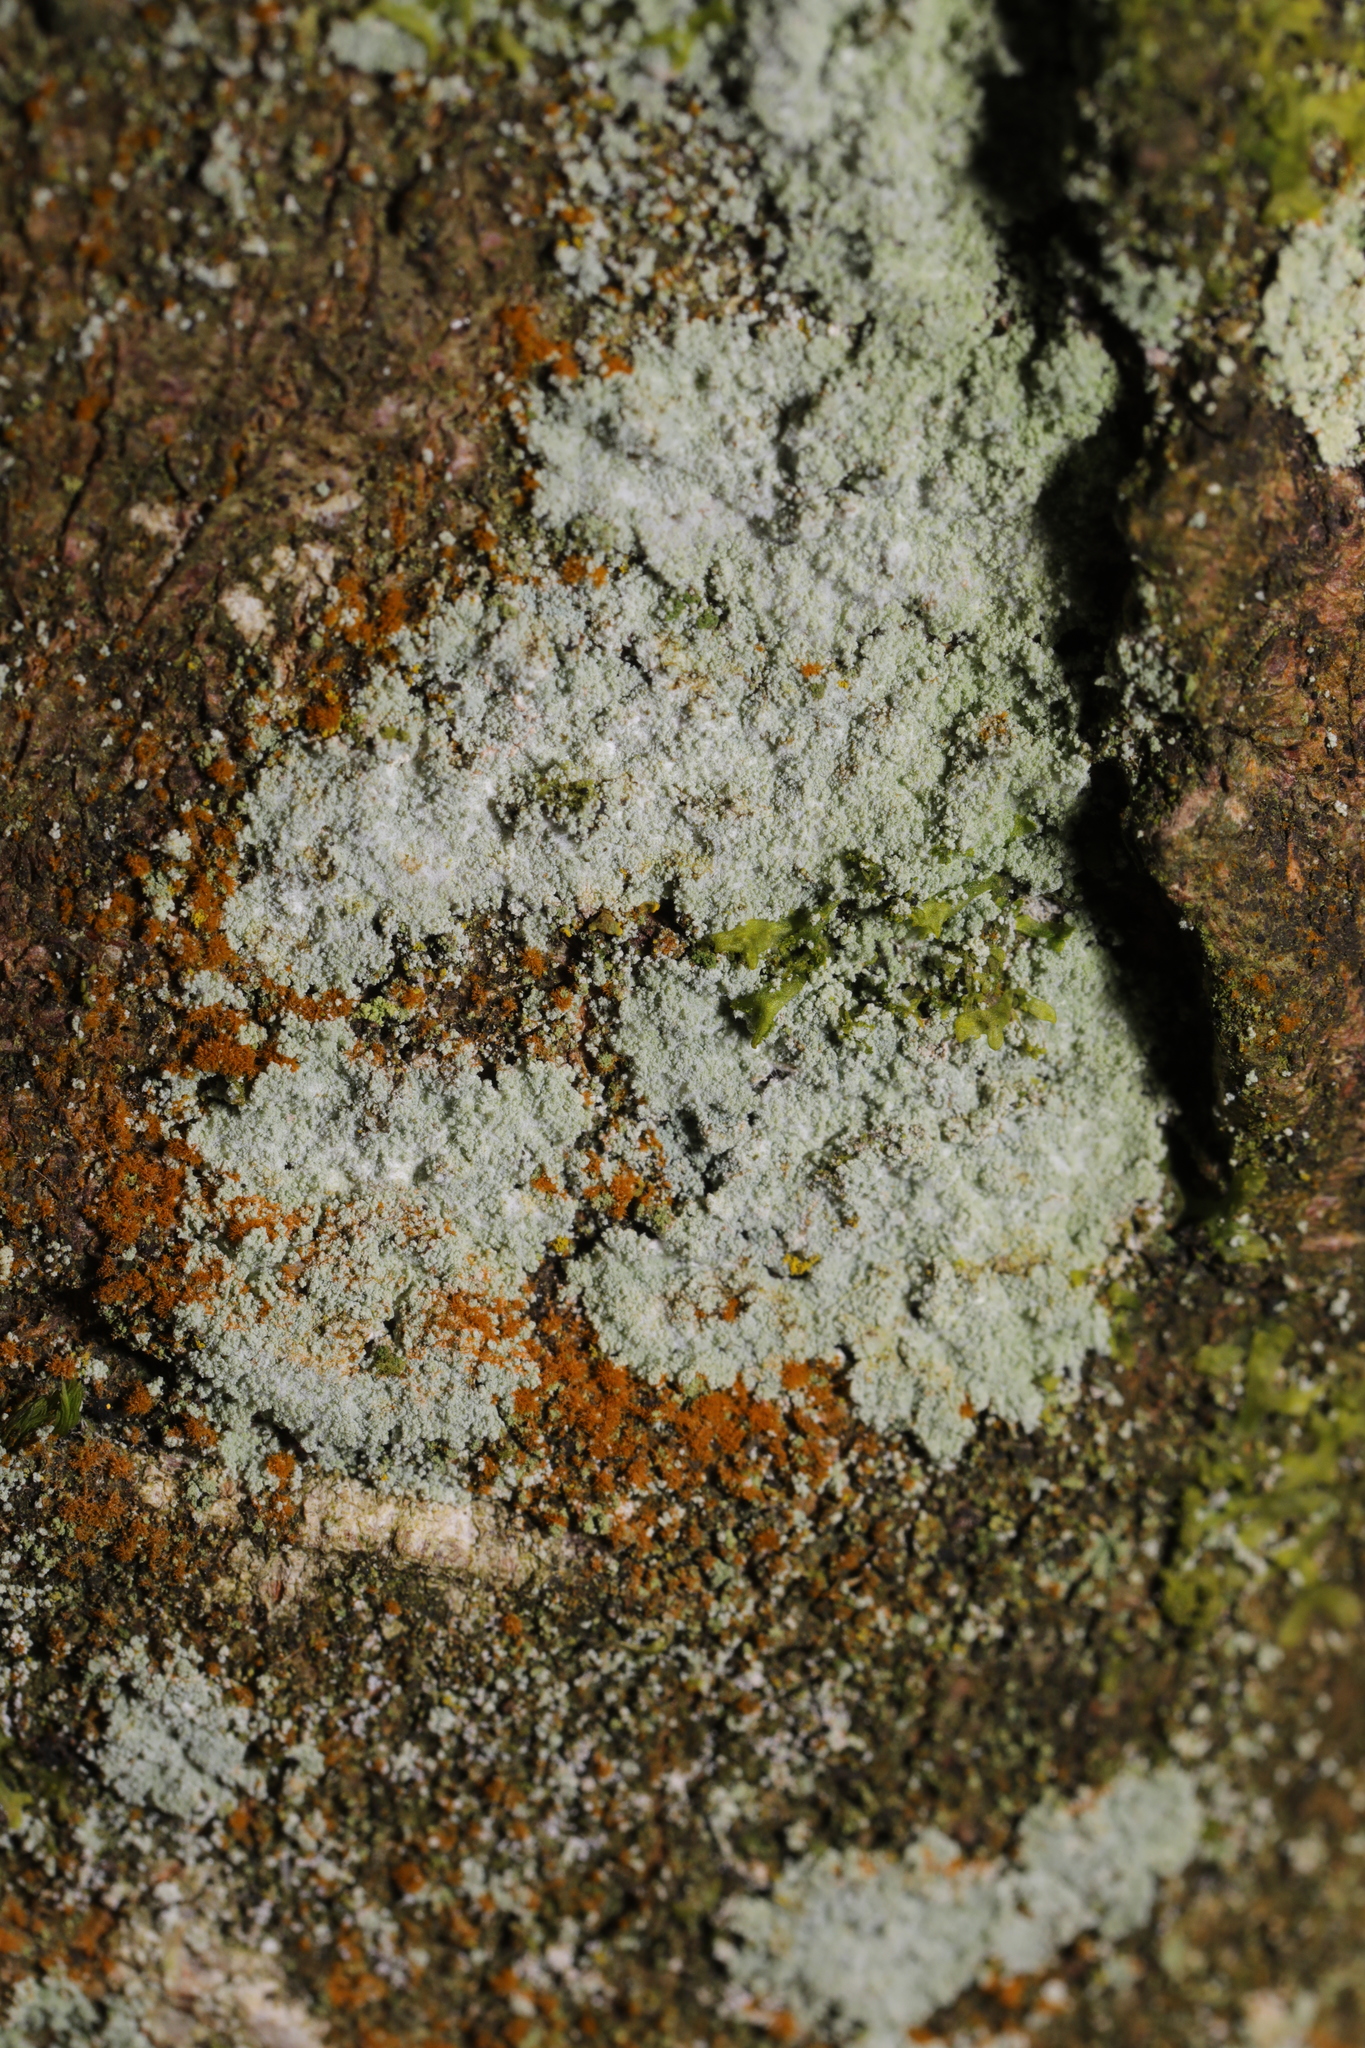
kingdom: Fungi
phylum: Ascomycota
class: Lecanoromycetes
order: Lecanorales
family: Stereocaulaceae
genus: Lepraria
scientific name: Lepraria
